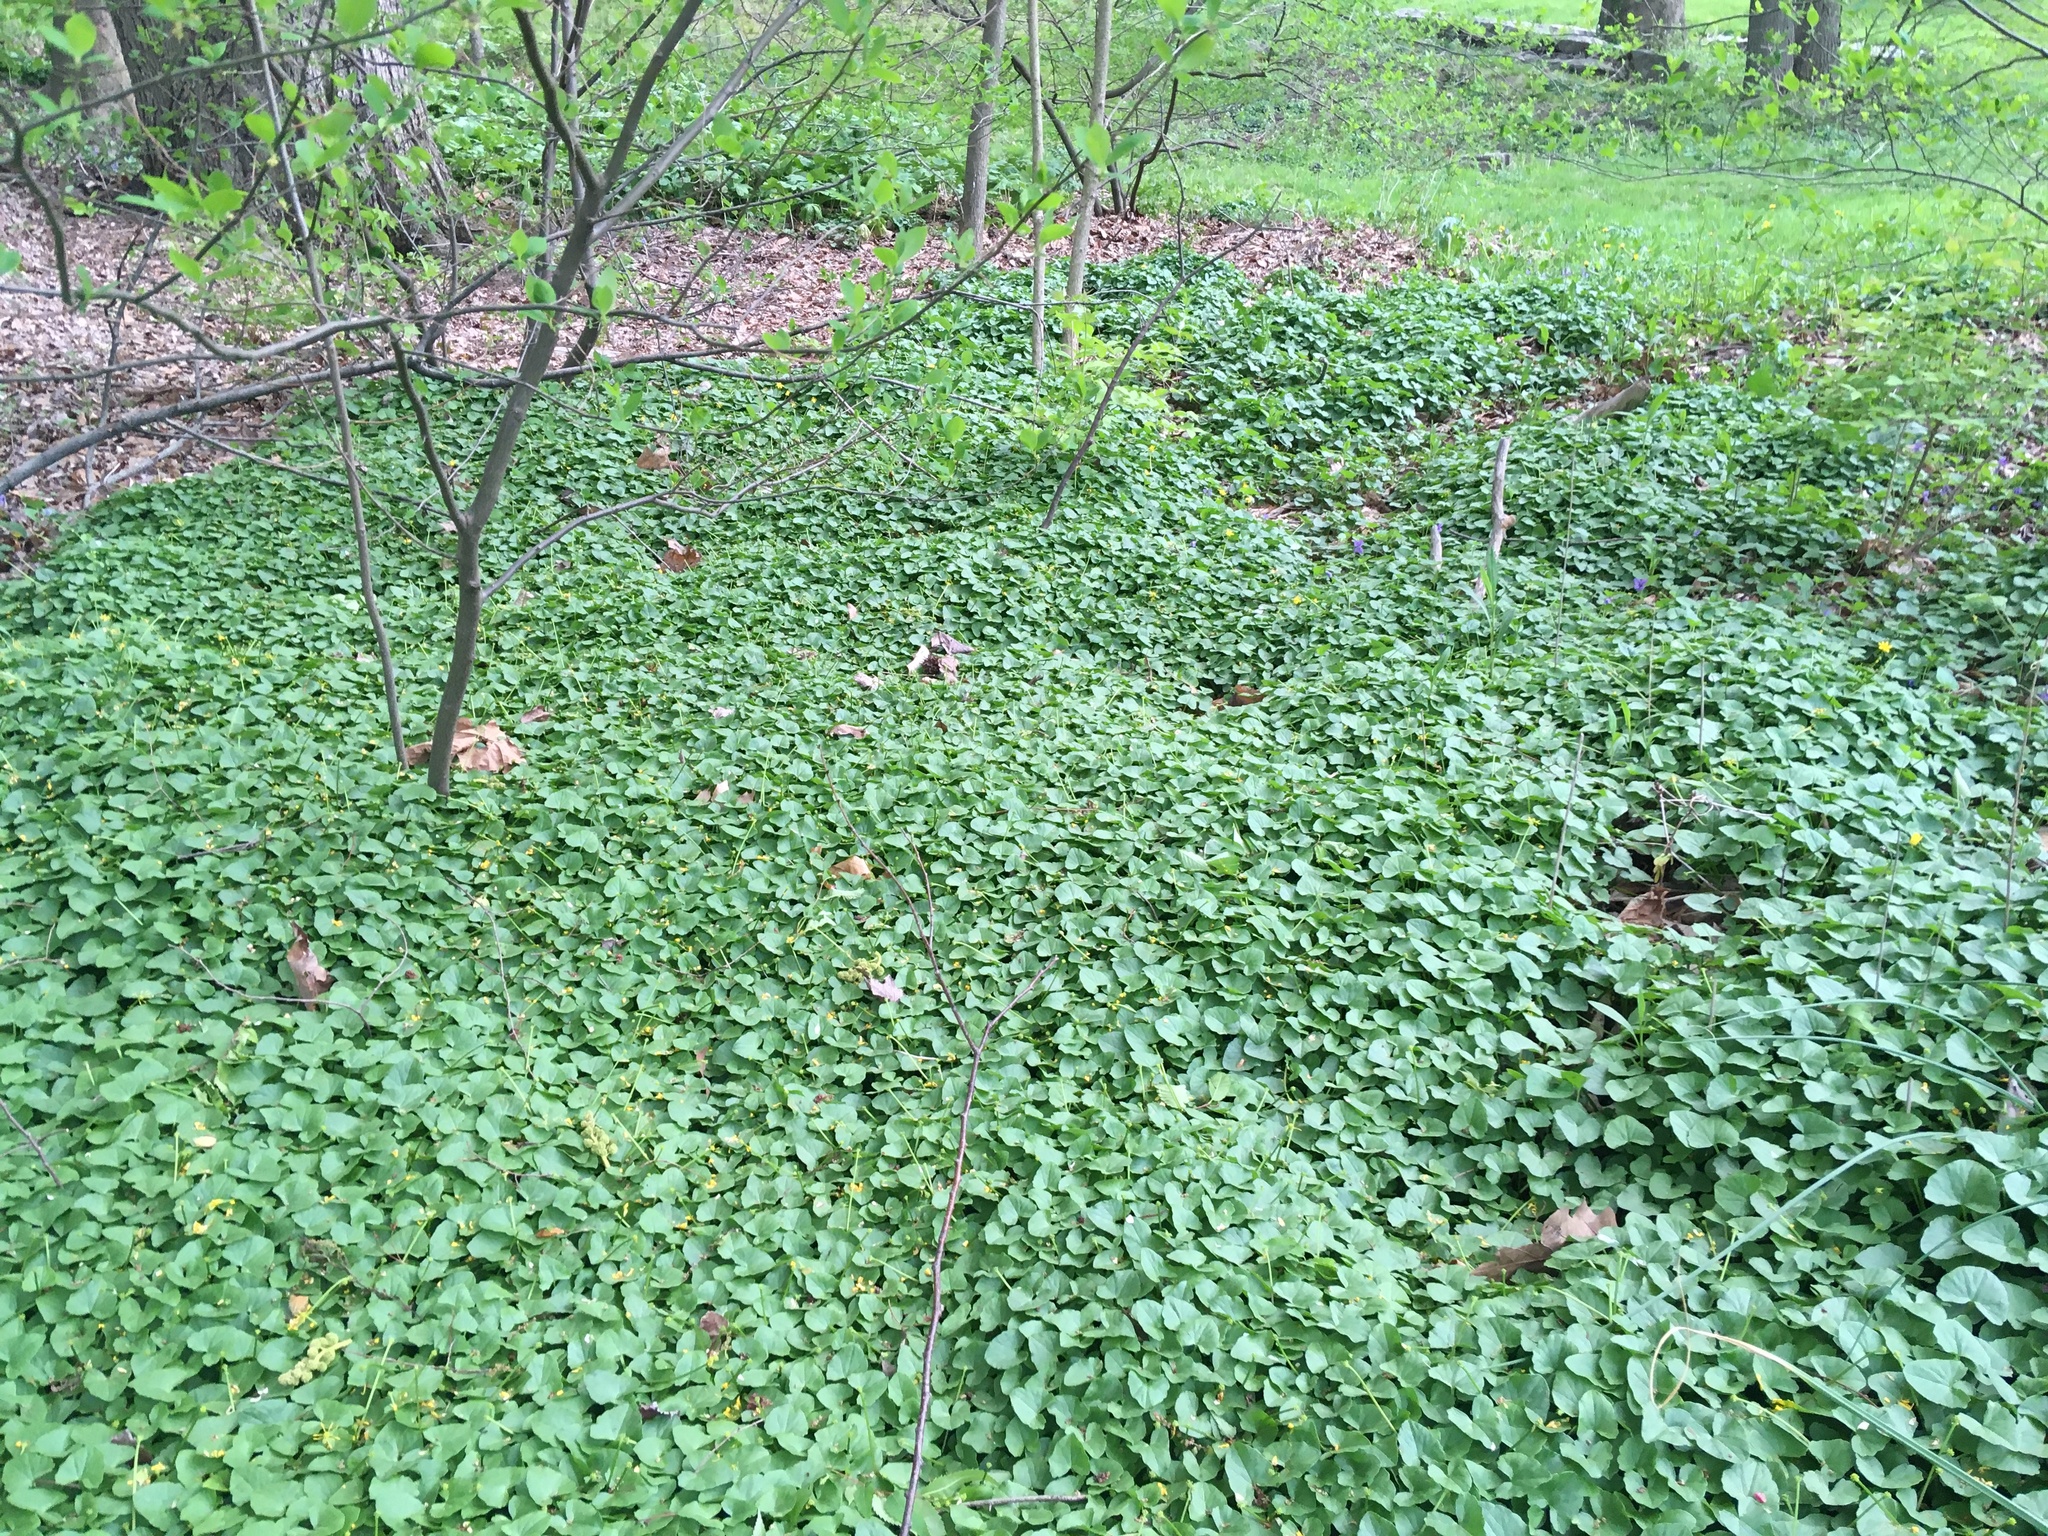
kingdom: Plantae
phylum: Tracheophyta
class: Magnoliopsida
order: Ranunculales
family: Ranunculaceae
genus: Ficaria
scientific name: Ficaria verna
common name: Lesser celandine
